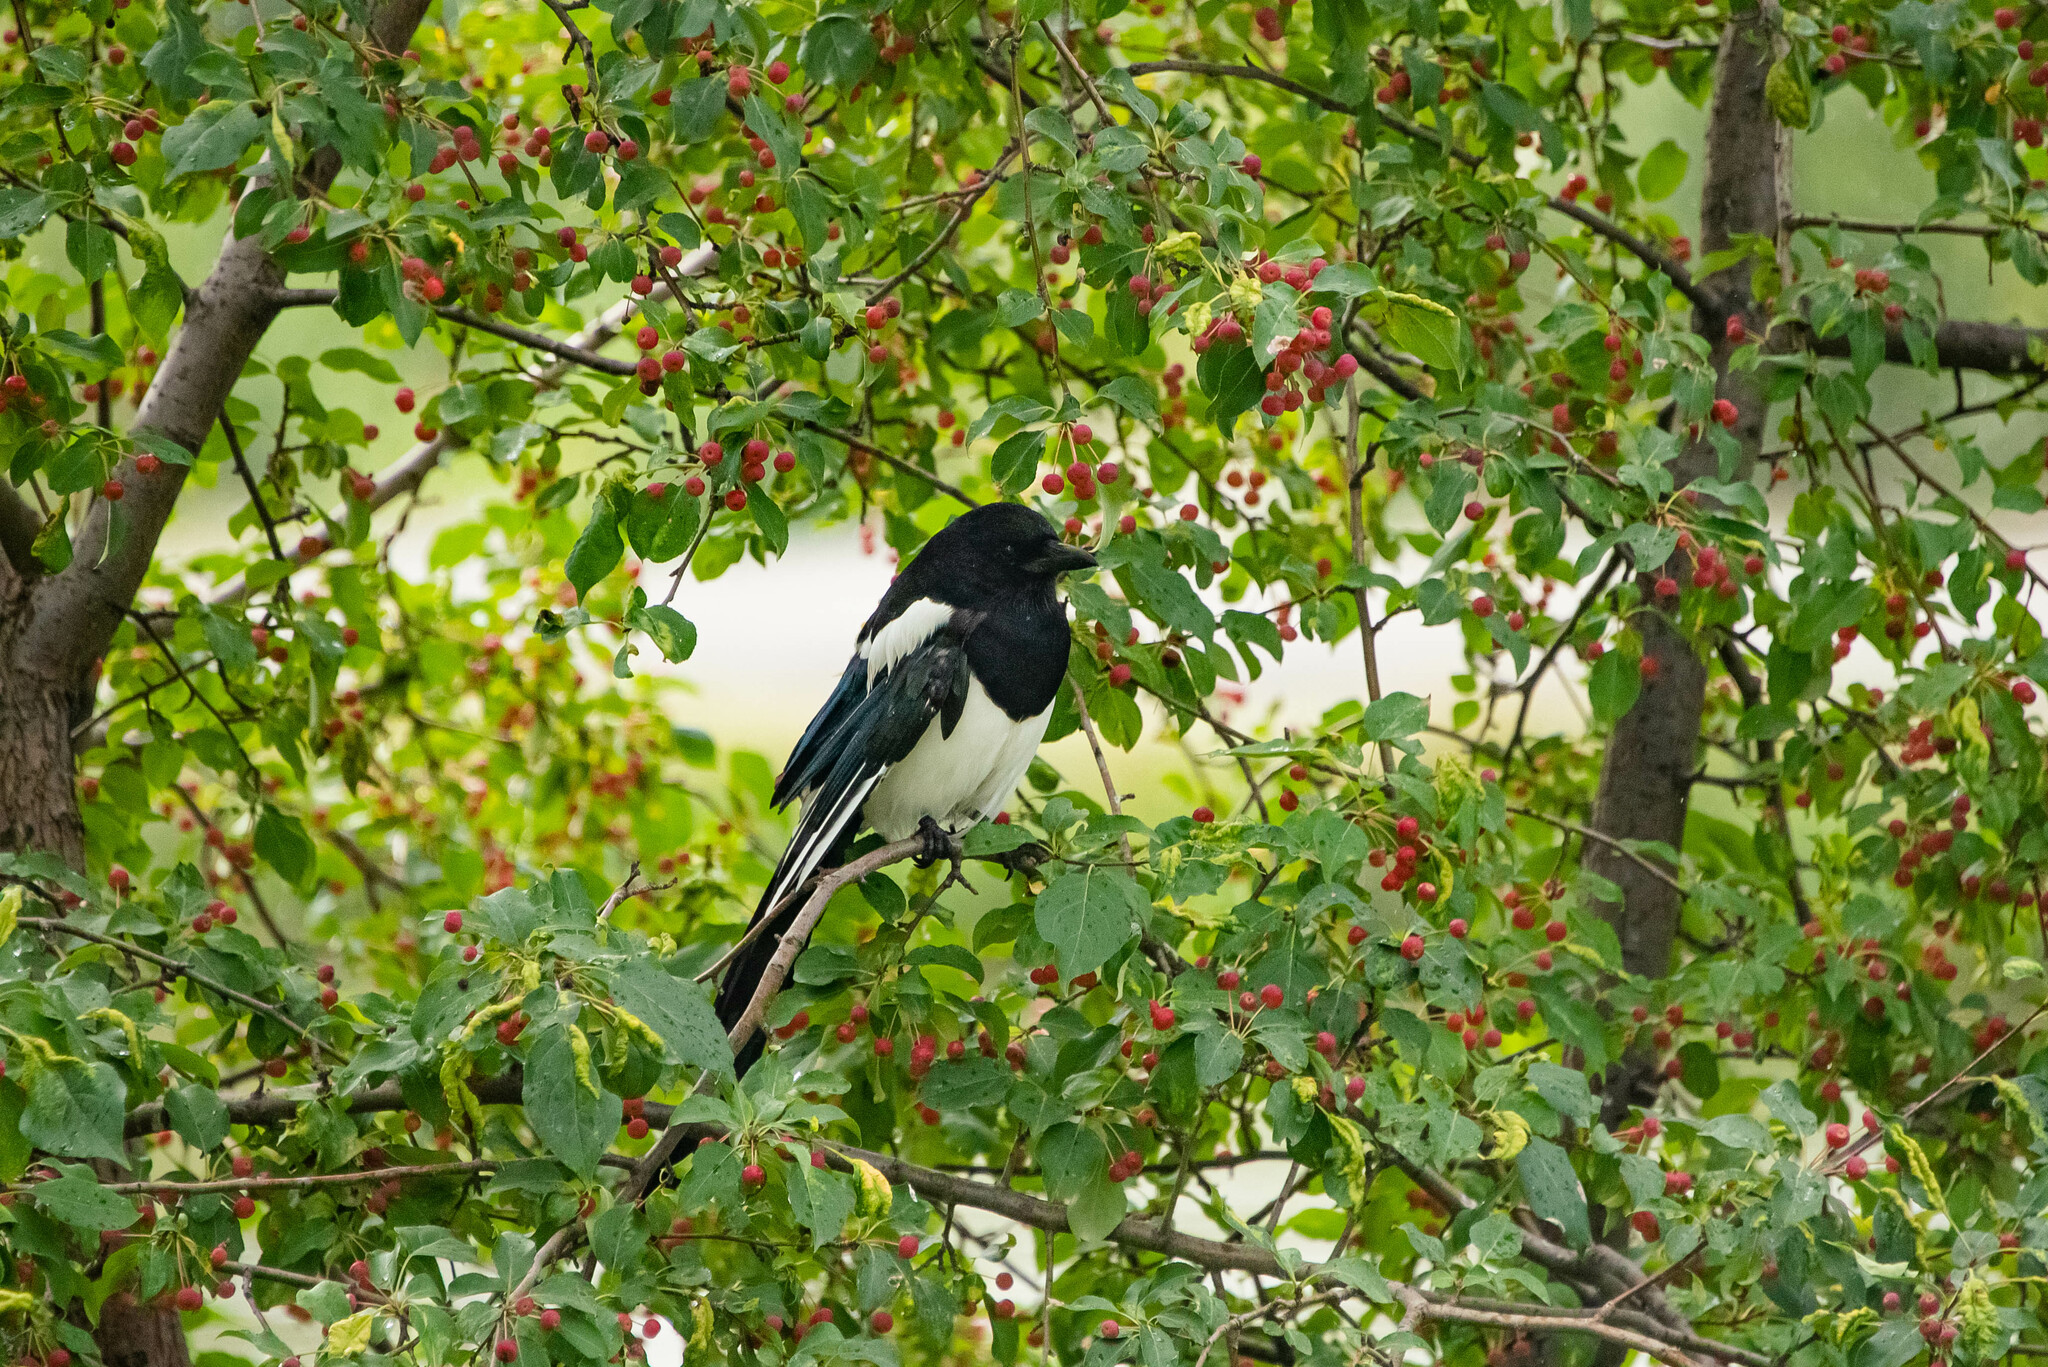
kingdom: Animalia
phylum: Chordata
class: Aves
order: Passeriformes
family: Corvidae
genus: Pica
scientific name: Pica pica
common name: Eurasian magpie
